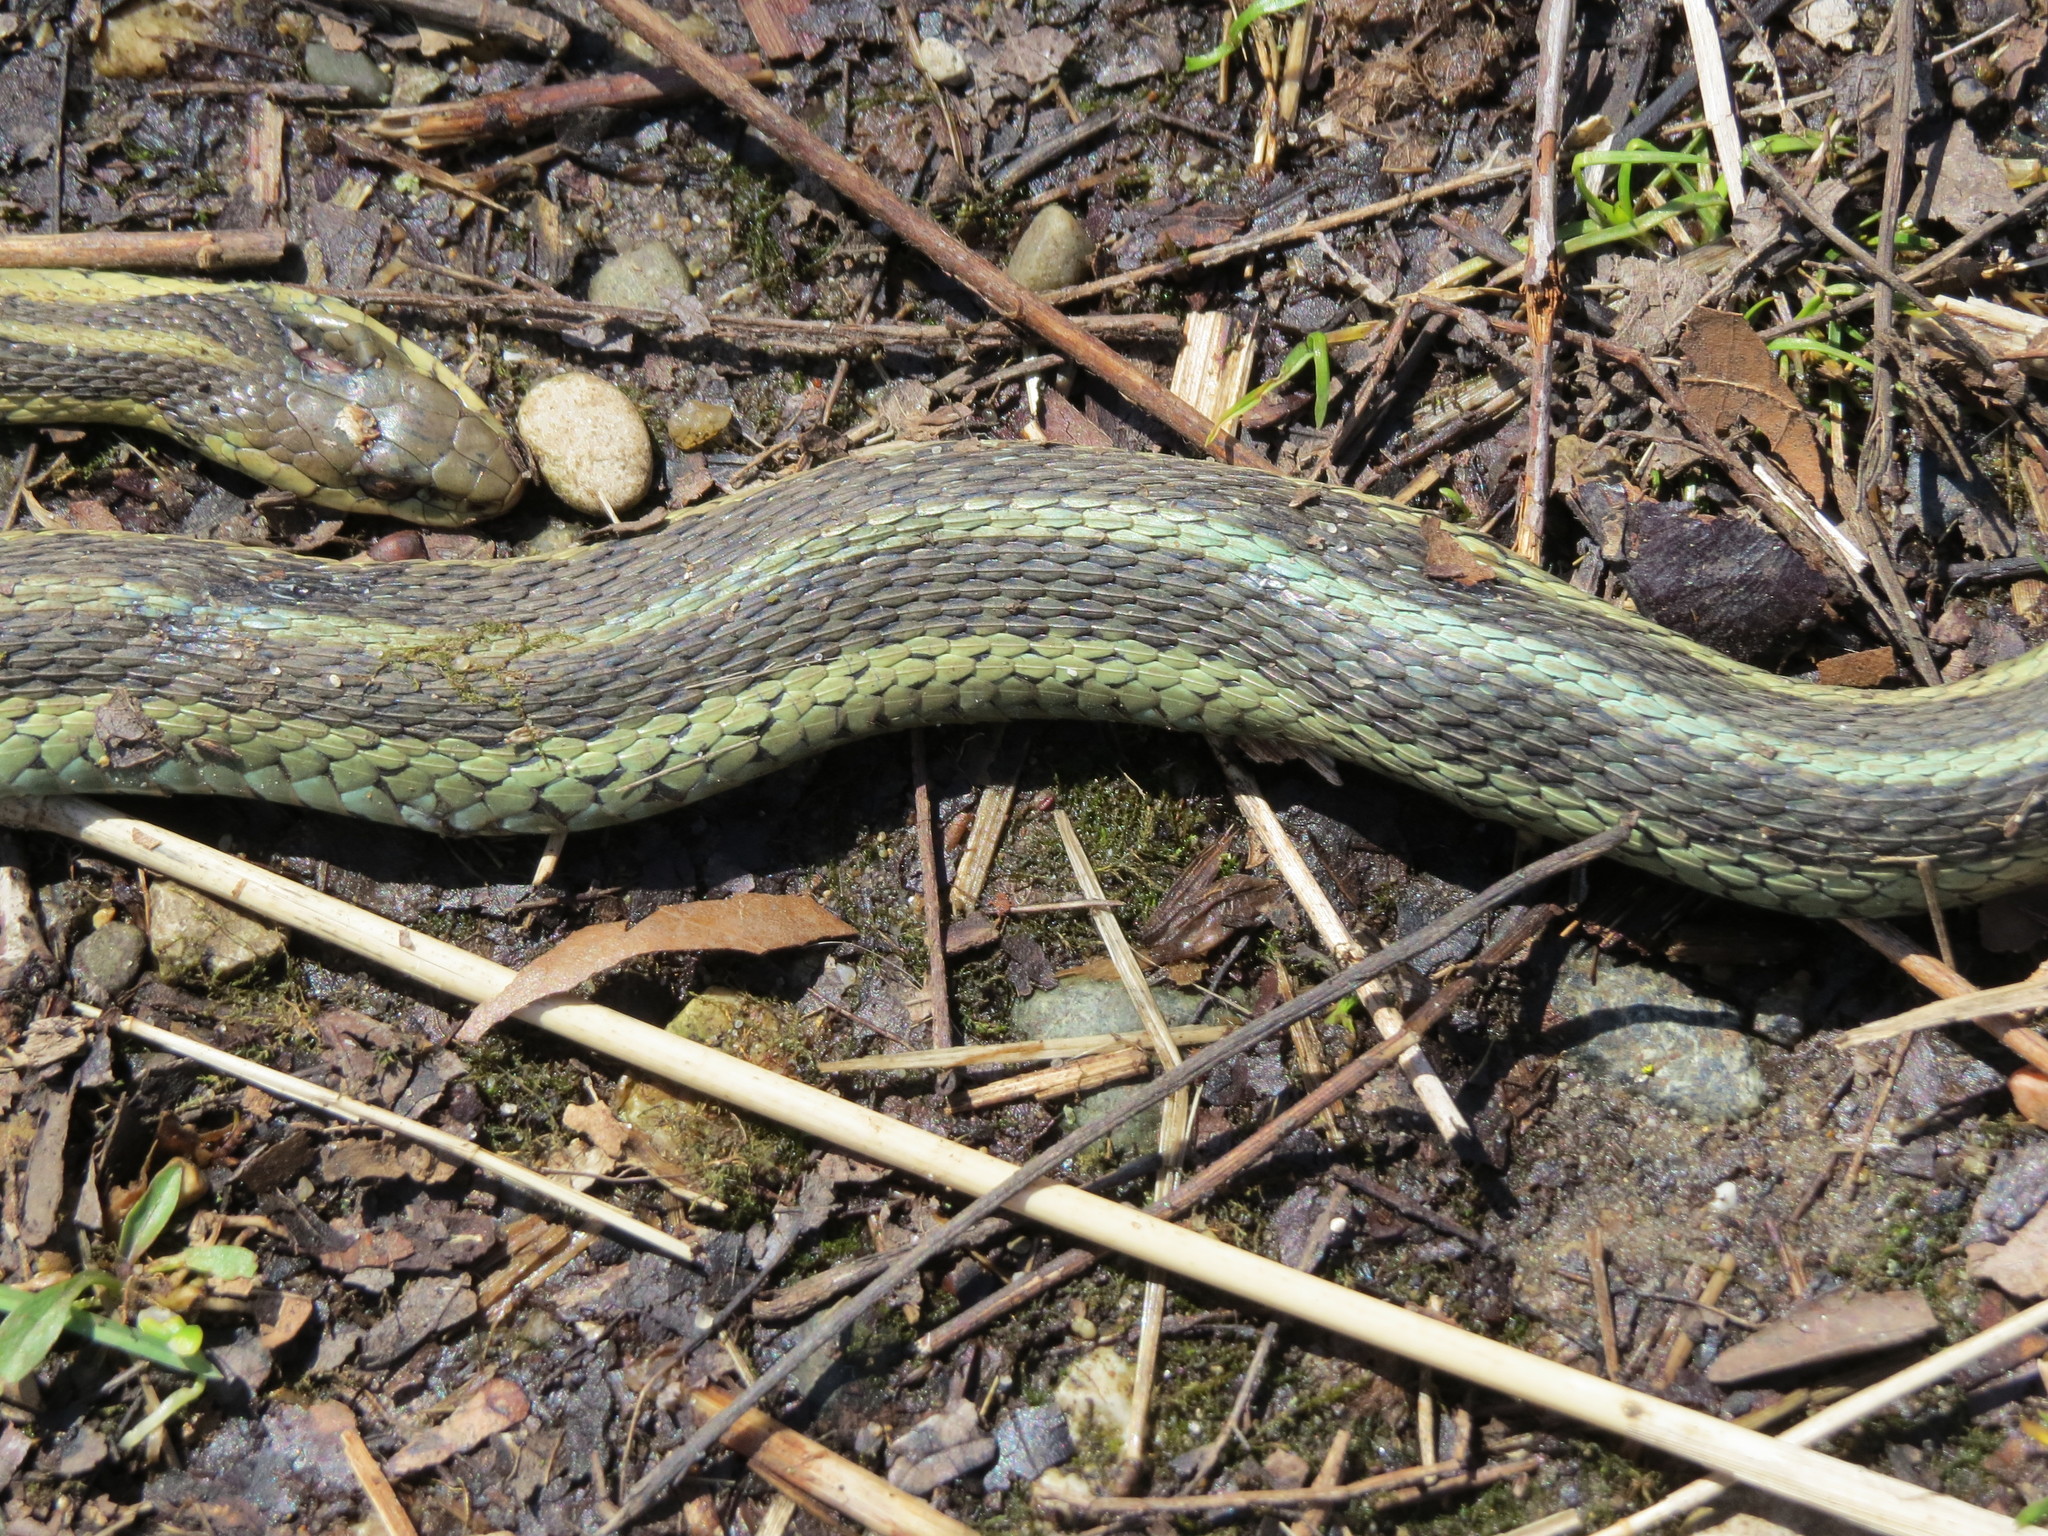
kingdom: Animalia
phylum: Chordata
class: Squamata
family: Colubridae
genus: Thamnophis
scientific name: Thamnophis sirtalis
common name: Common garter snake
